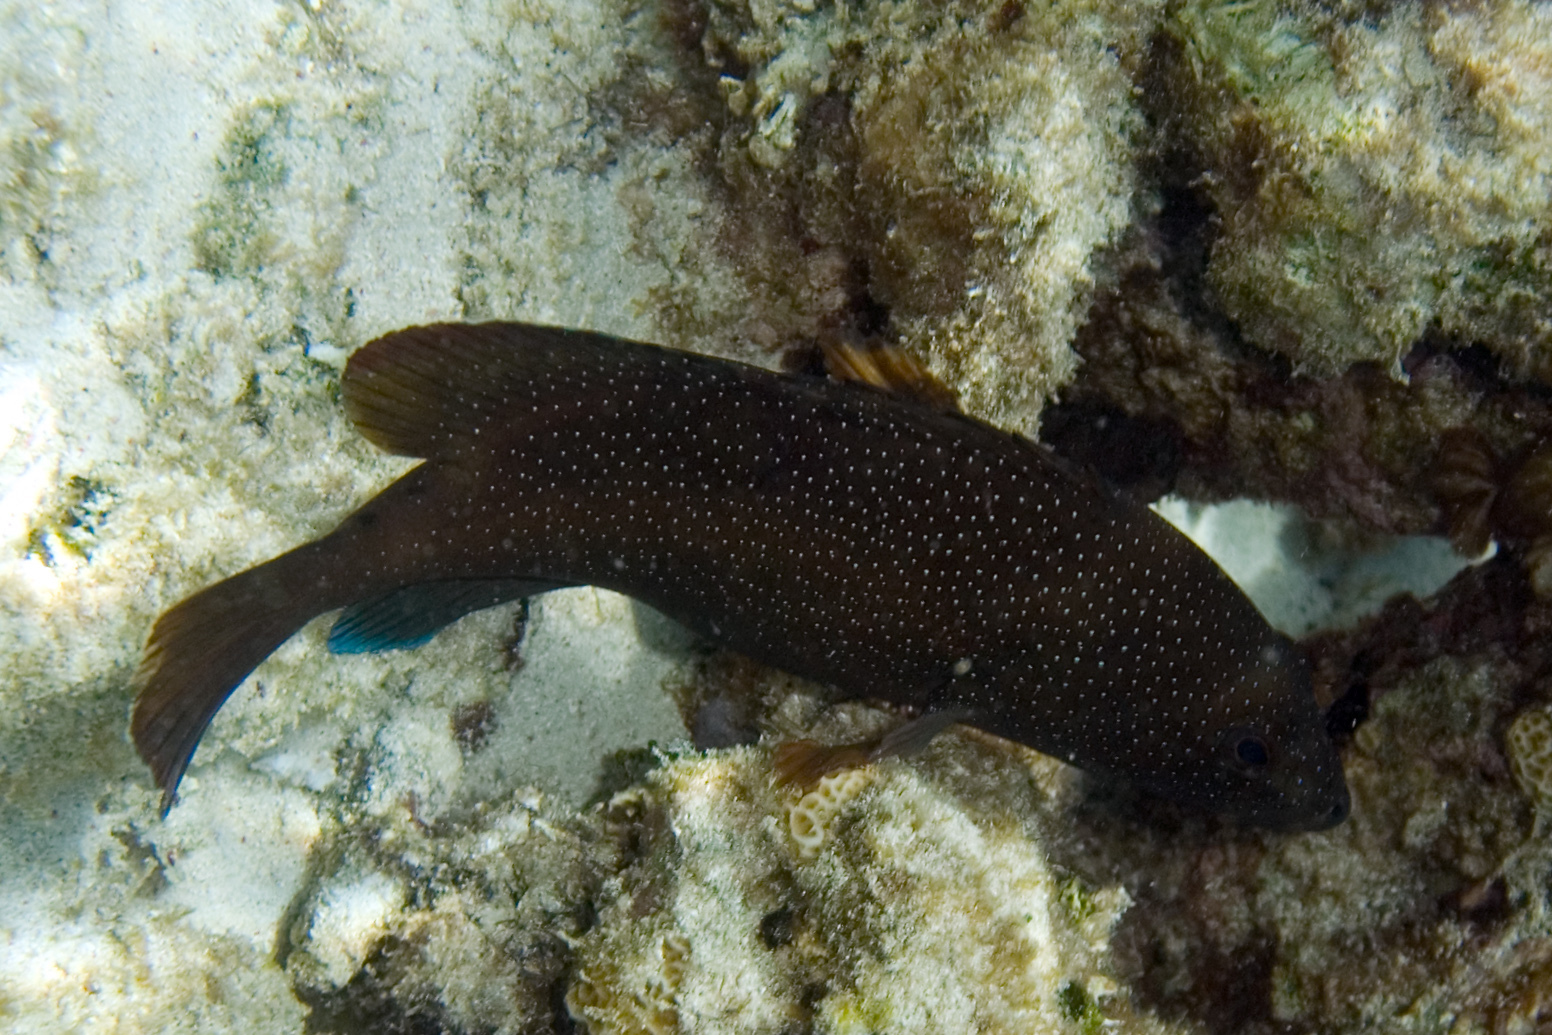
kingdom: Animalia
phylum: Chordata
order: Perciformes
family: Serranidae
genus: Cephalopholis
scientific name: Cephalopholis fulva
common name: Butterfish
